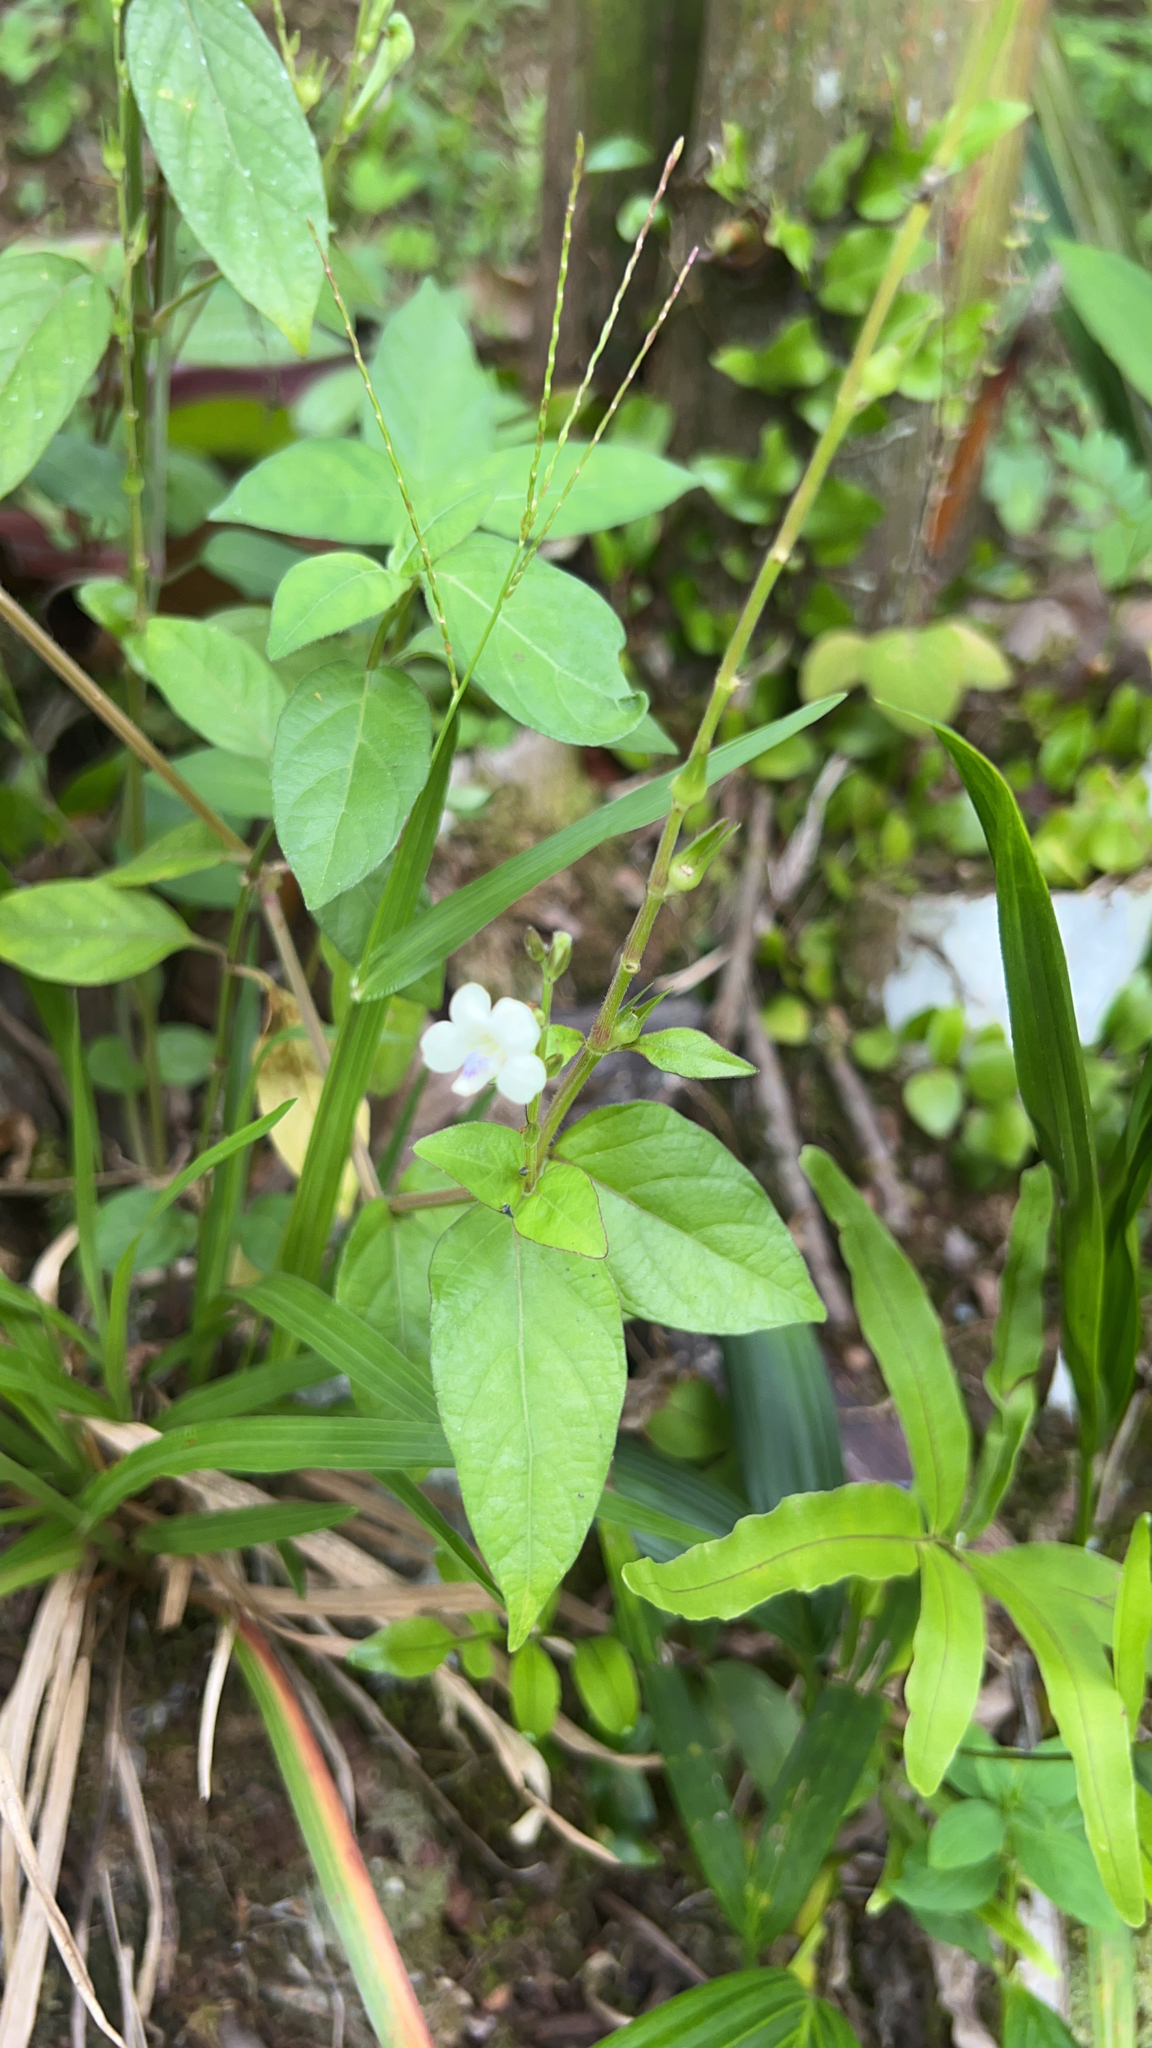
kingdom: Plantae
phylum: Tracheophyta
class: Magnoliopsida
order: Lamiales
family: Acanthaceae
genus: Asystasia
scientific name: Asystasia intrusa
